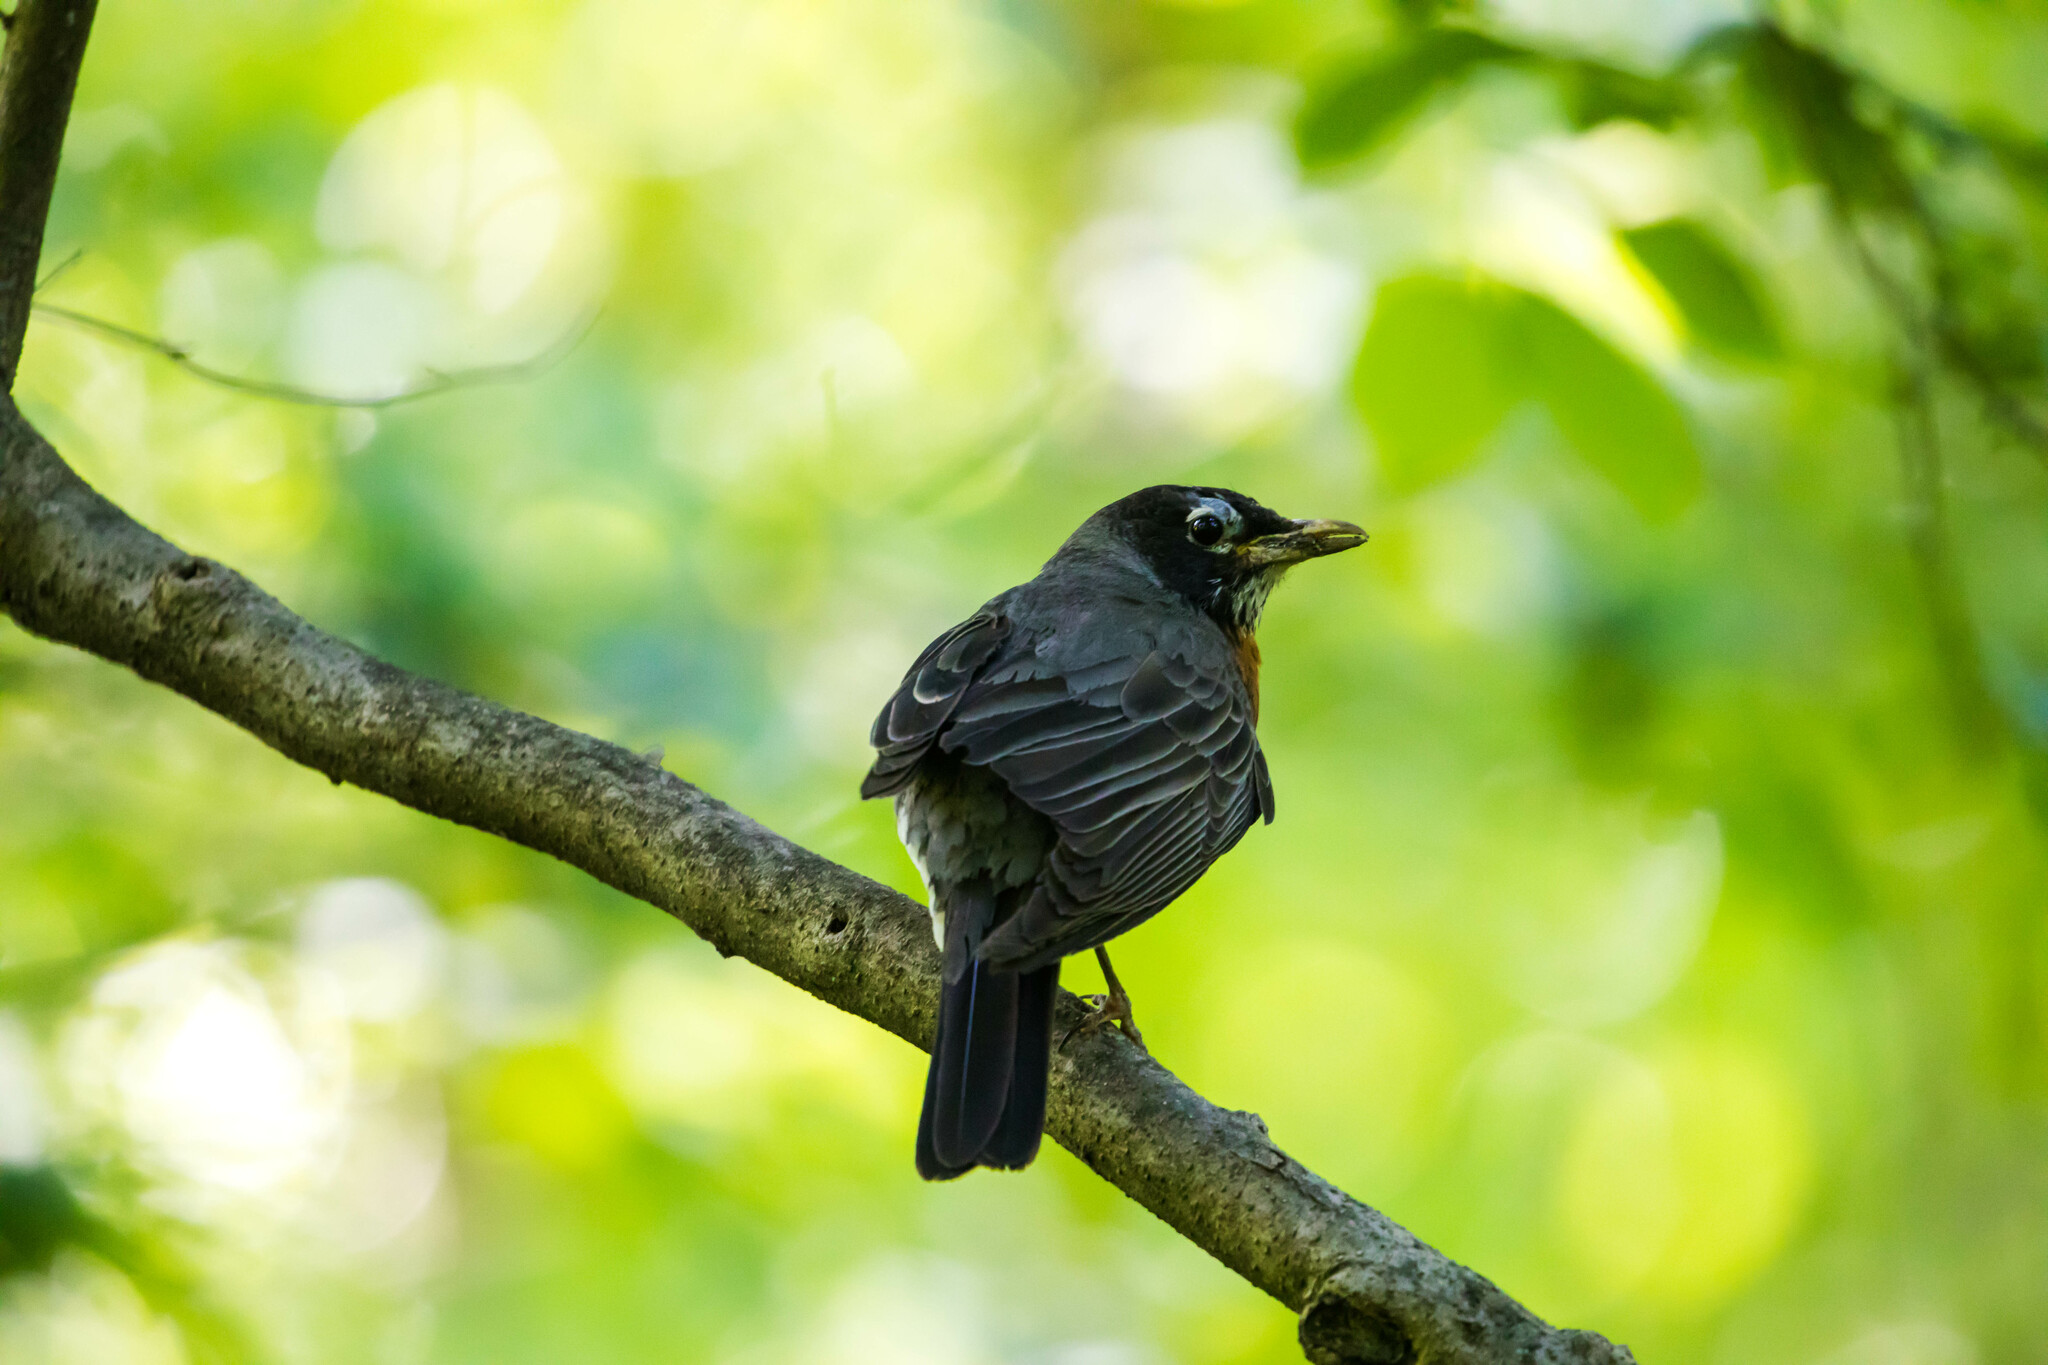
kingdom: Animalia
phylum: Chordata
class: Aves
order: Passeriformes
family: Turdidae
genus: Turdus
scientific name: Turdus migratorius
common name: American robin
